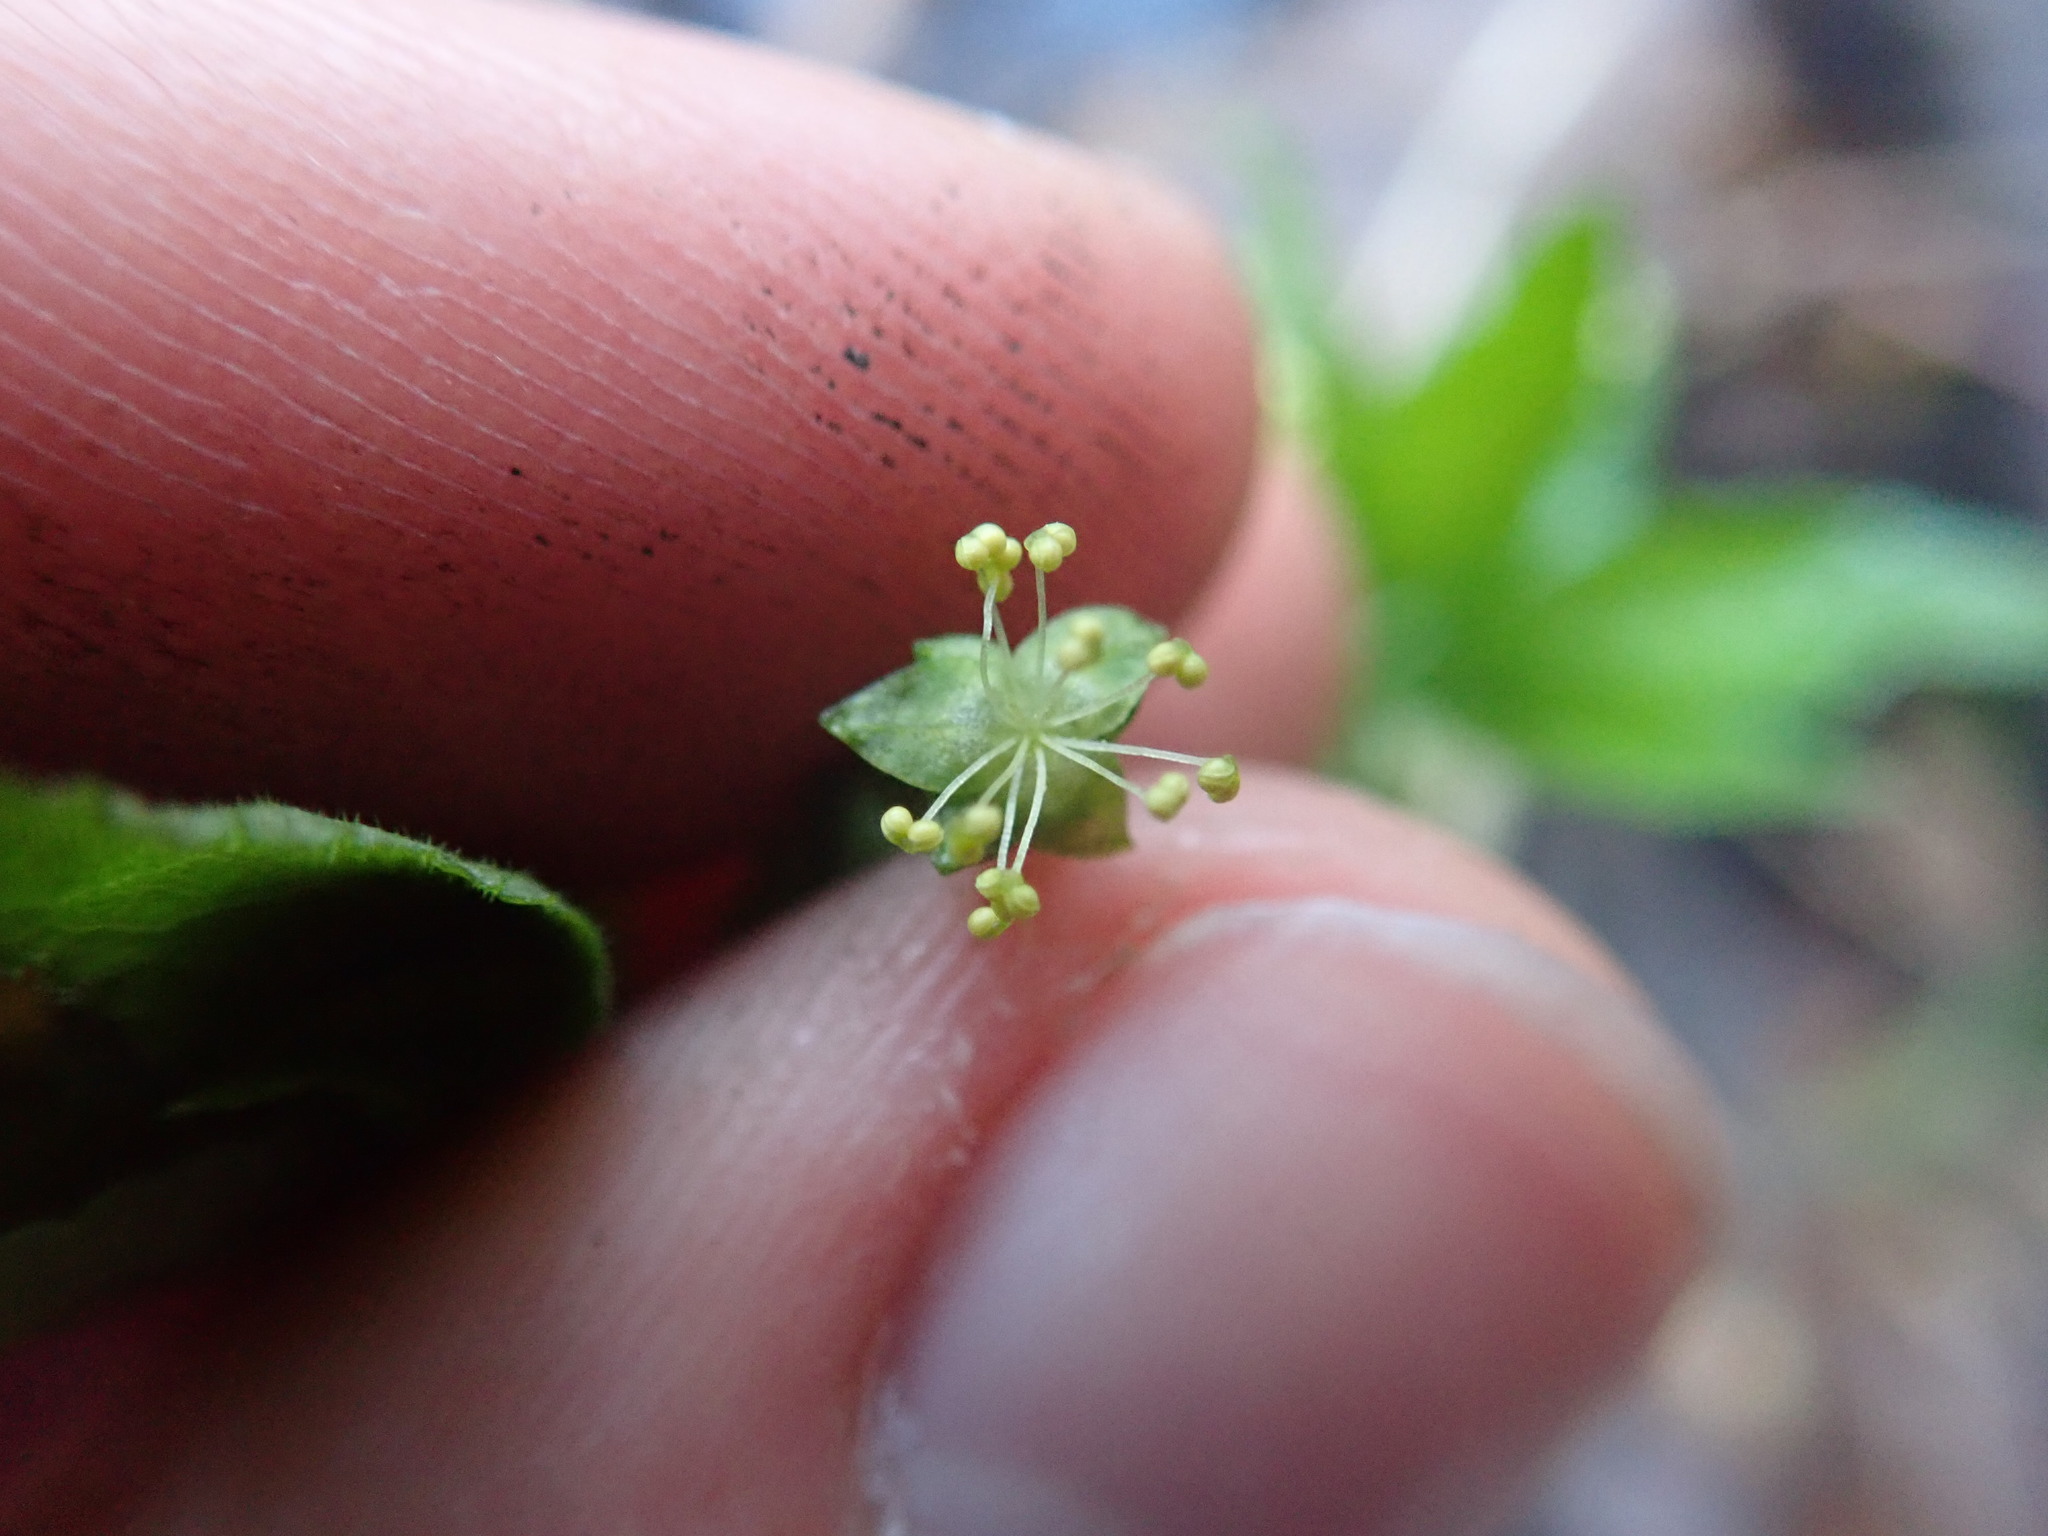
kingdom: Plantae
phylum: Tracheophyta
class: Magnoliopsida
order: Malpighiales
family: Euphorbiaceae
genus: Mercurialis
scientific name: Mercurialis perennis
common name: Dog mercury
